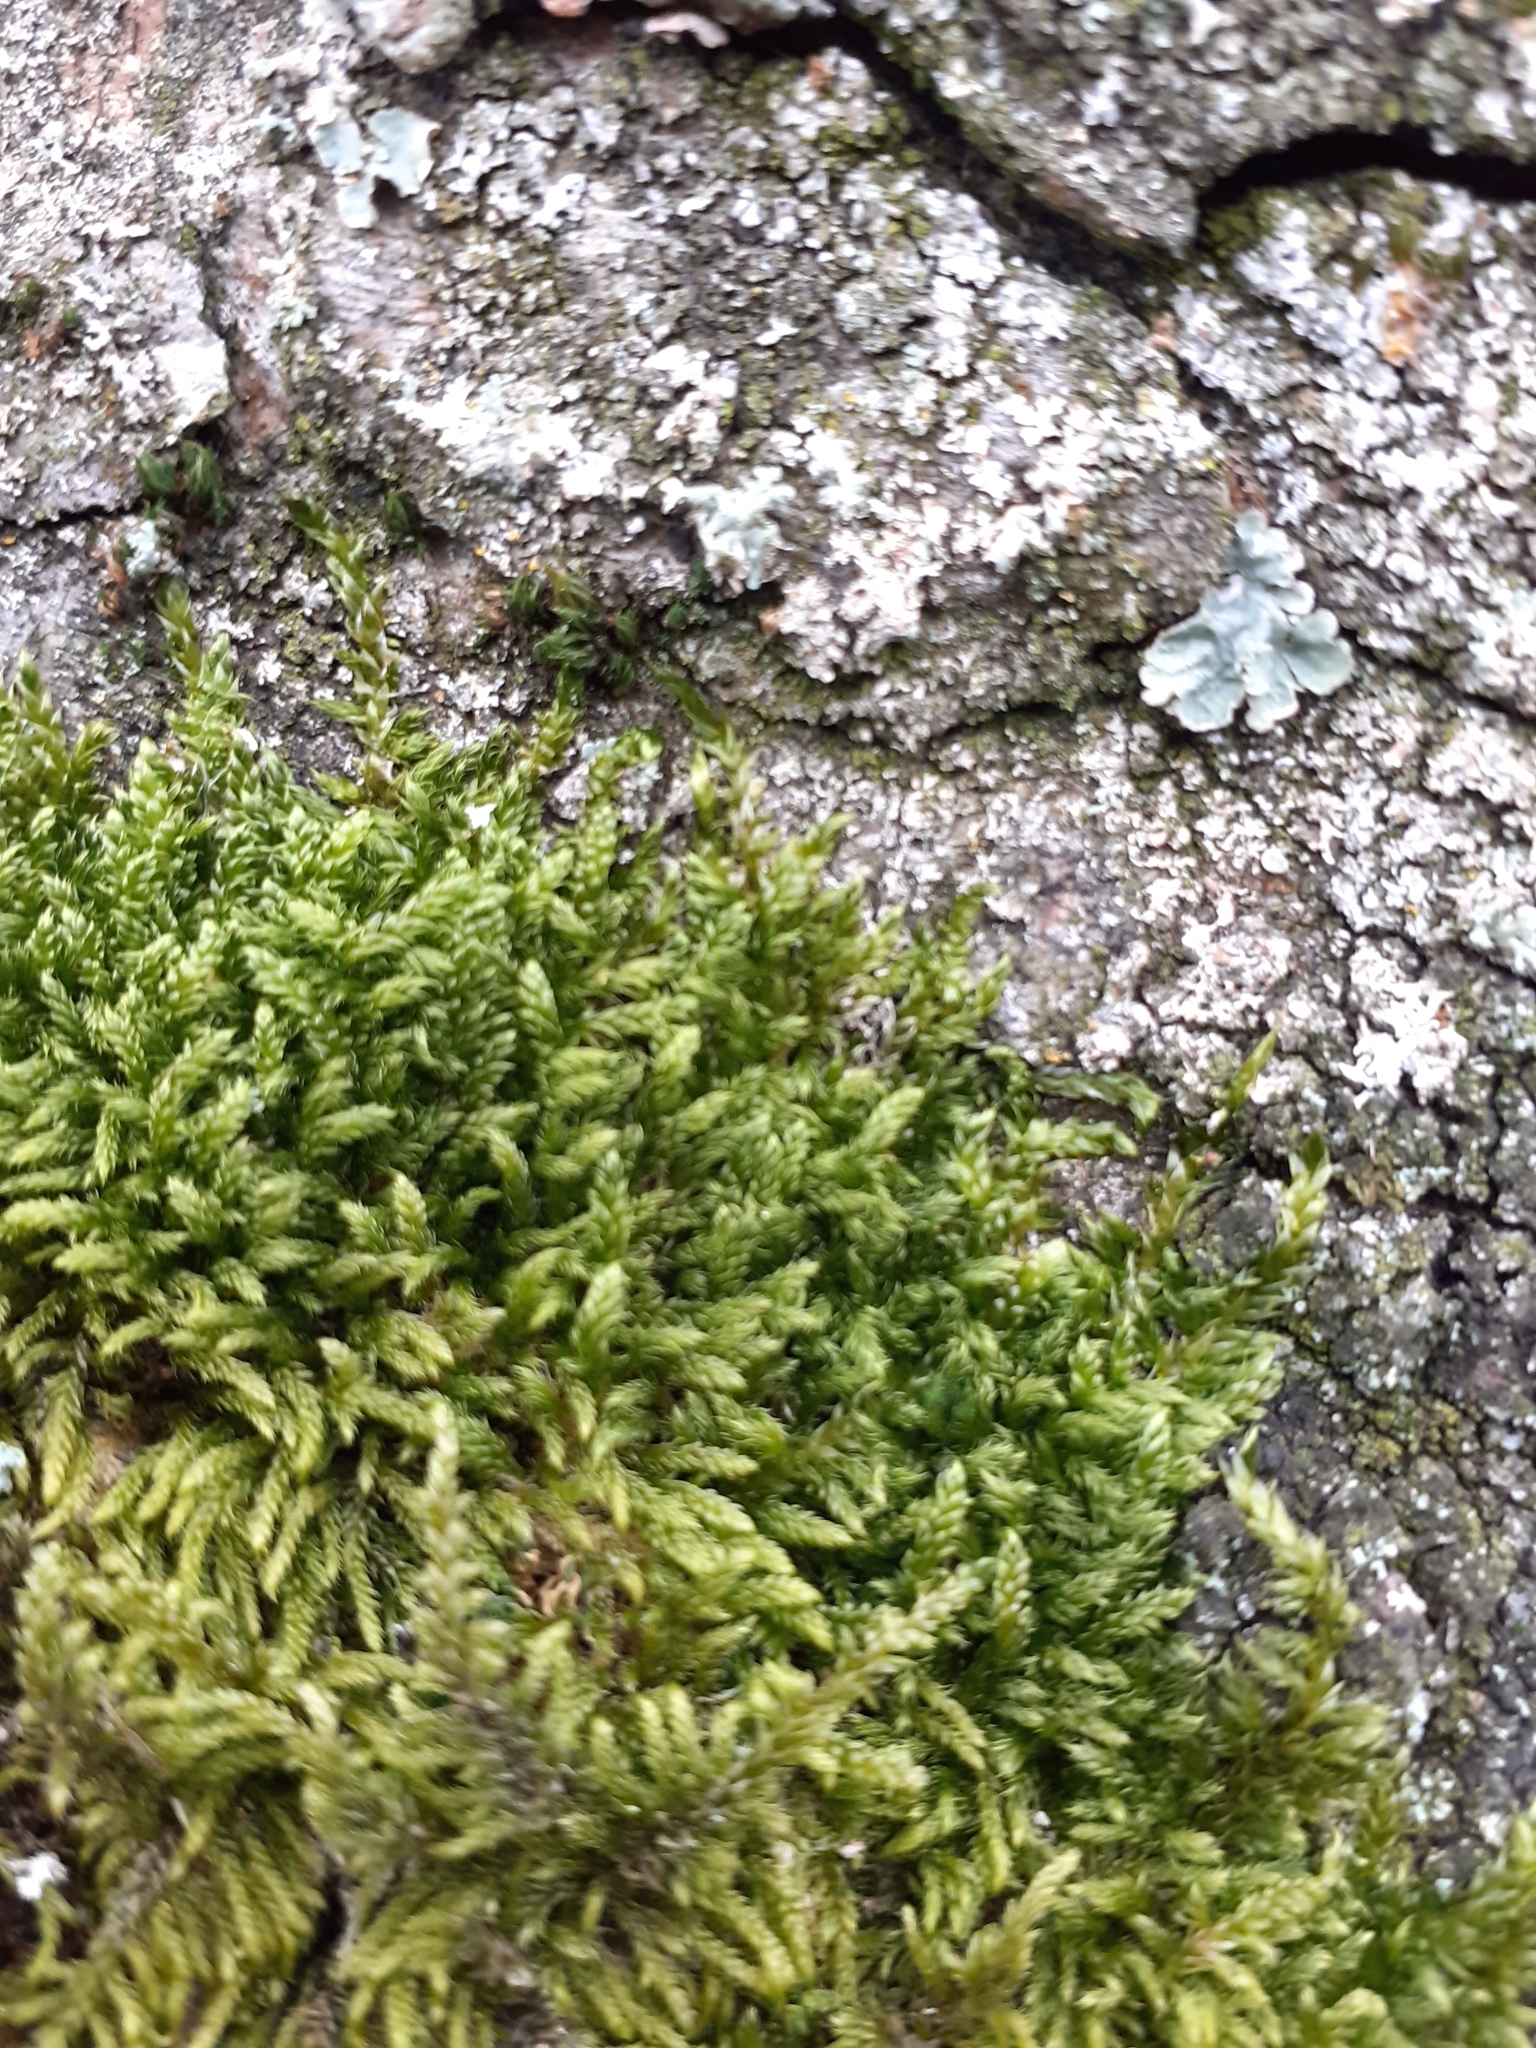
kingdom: Plantae
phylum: Bryophyta
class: Bryopsida
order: Hypnales
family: Hypnaceae
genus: Hypnum
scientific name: Hypnum cupressiforme
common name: Cypress-leaved plait-moss
